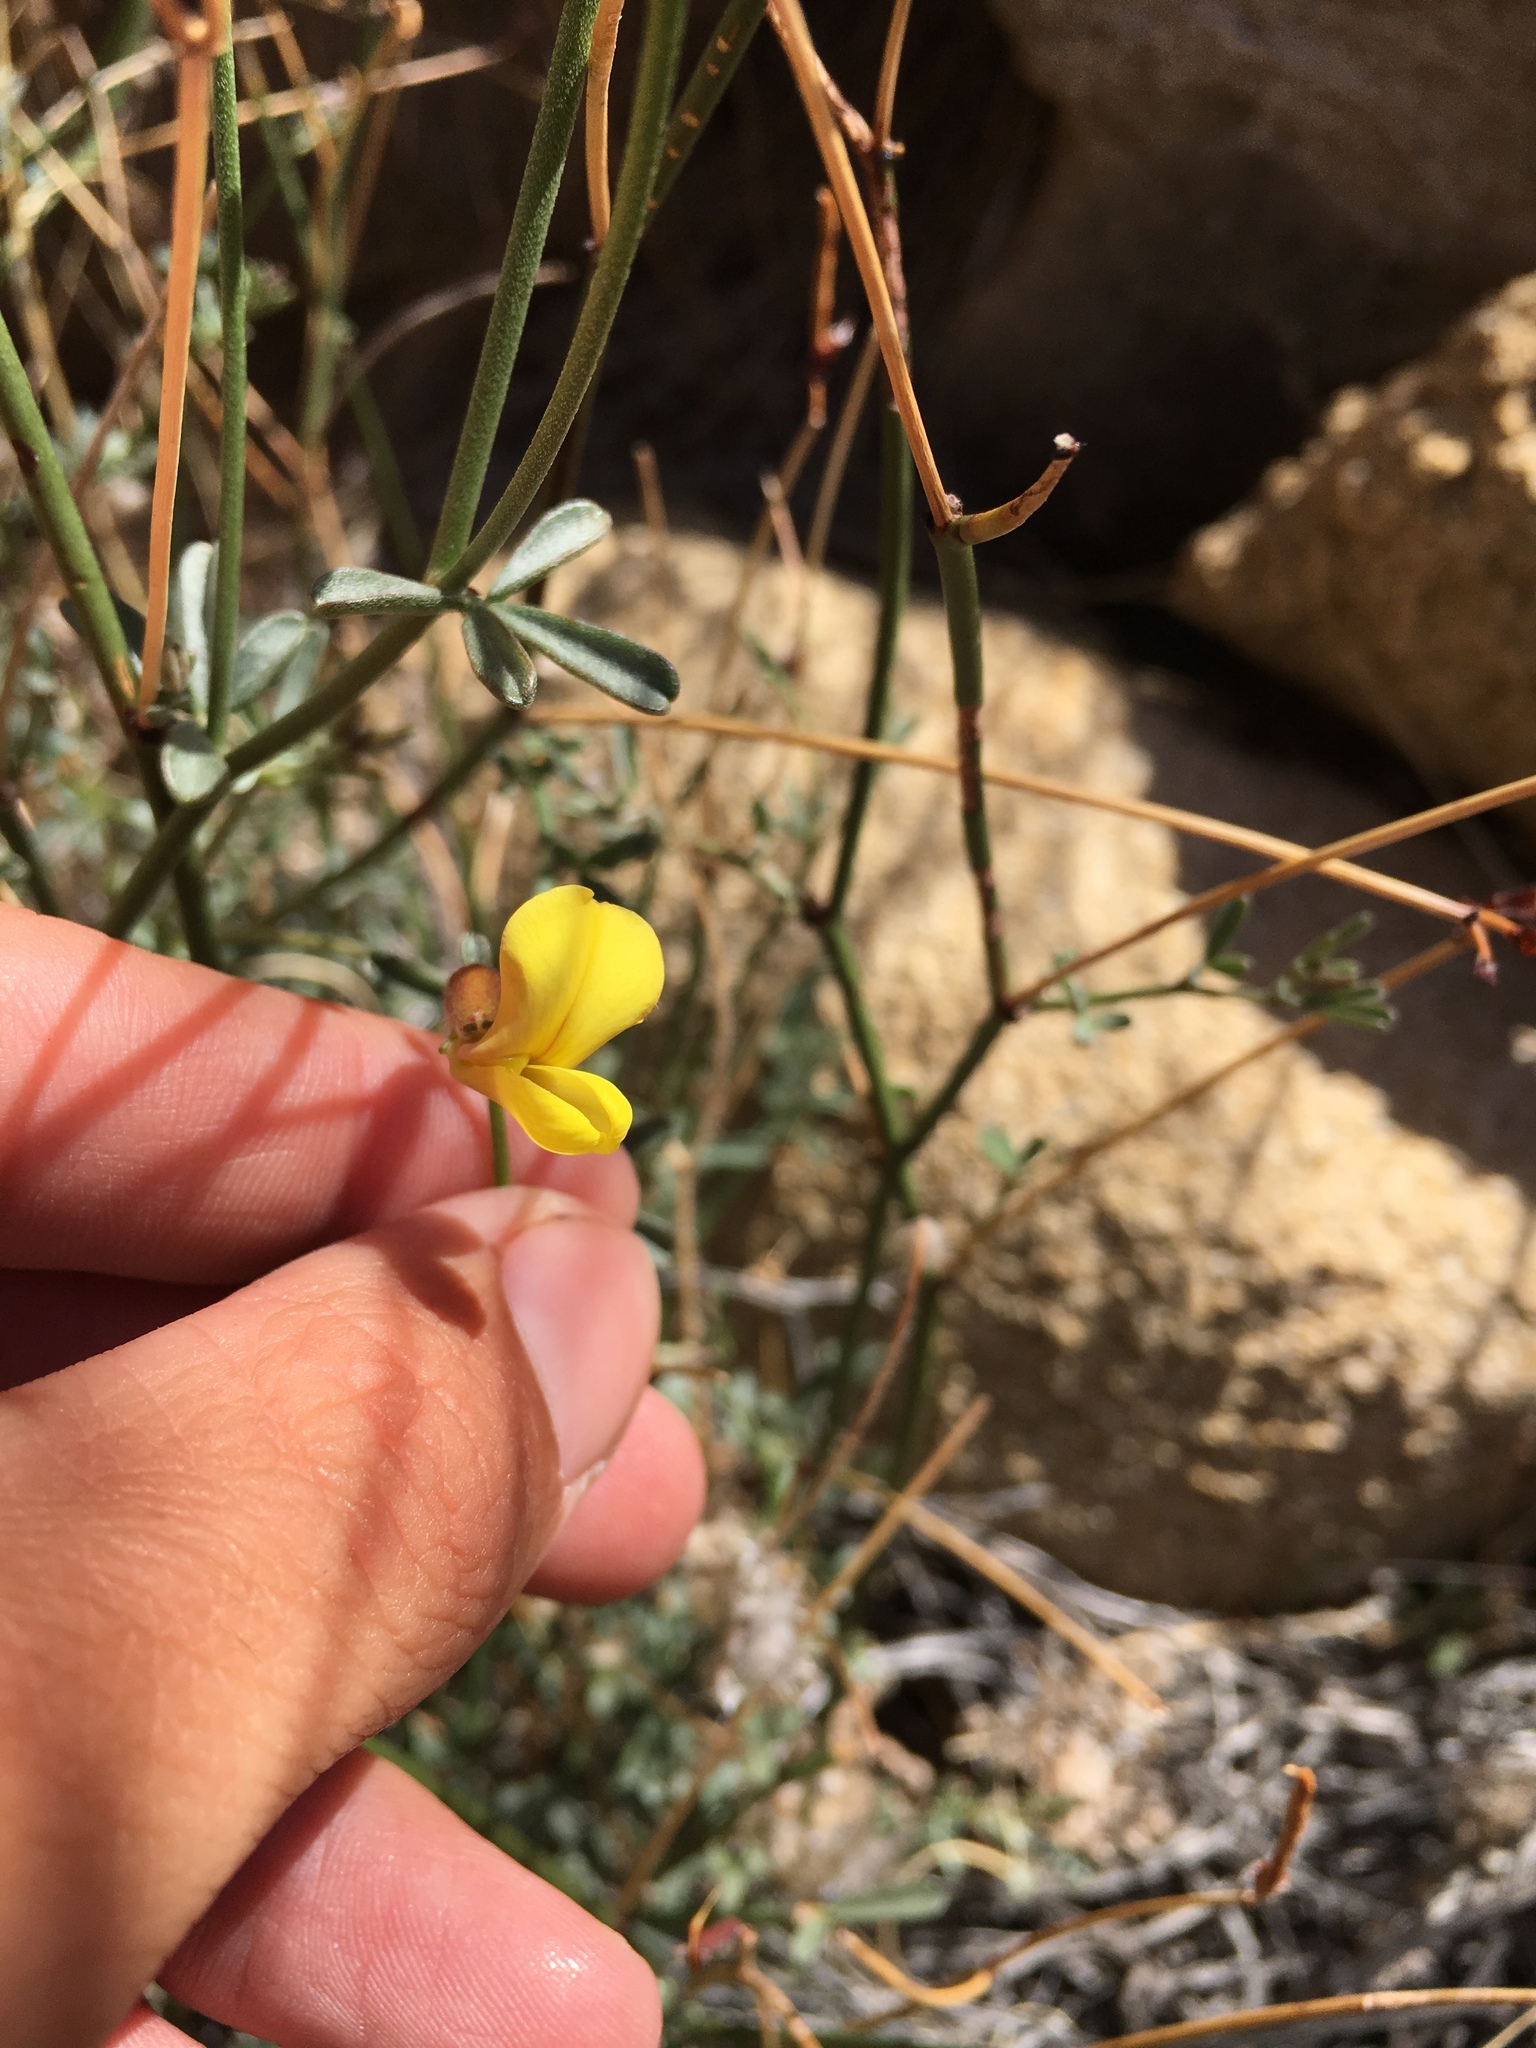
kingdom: Plantae
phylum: Tracheophyta
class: Magnoliopsida
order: Fabales
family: Fabaceae
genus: Acmispon
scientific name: Acmispon rigidus
